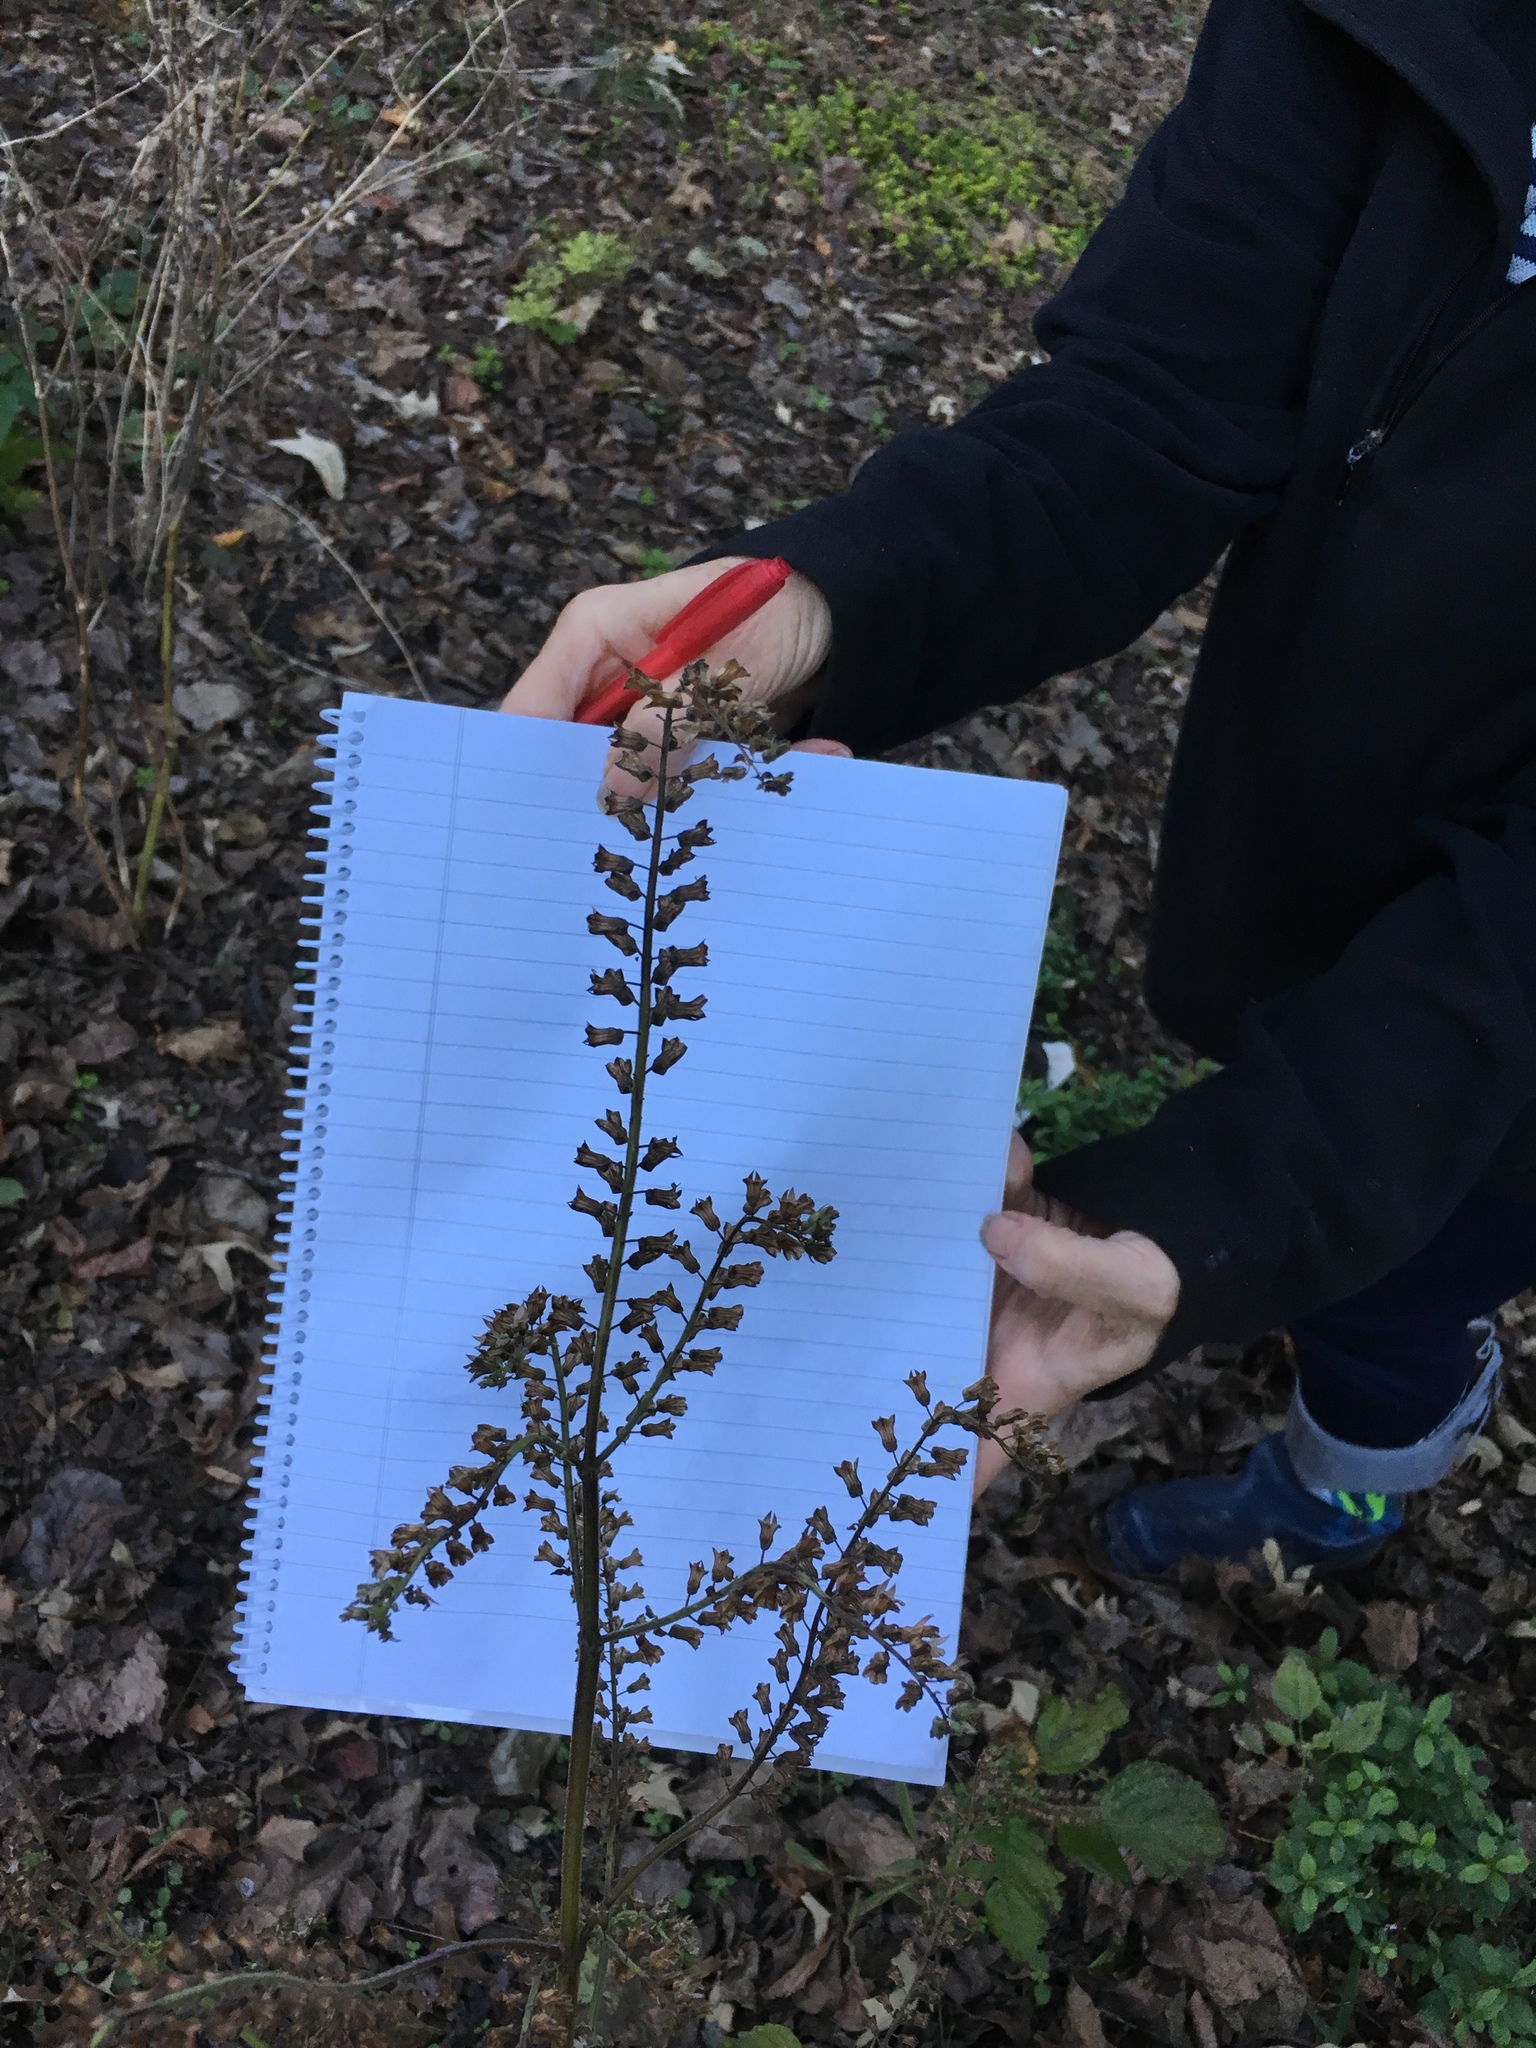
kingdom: Plantae
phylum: Tracheophyta
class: Magnoliopsida
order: Lamiales
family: Lamiaceae
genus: Perilla
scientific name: Perilla frutescens
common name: Perilla
